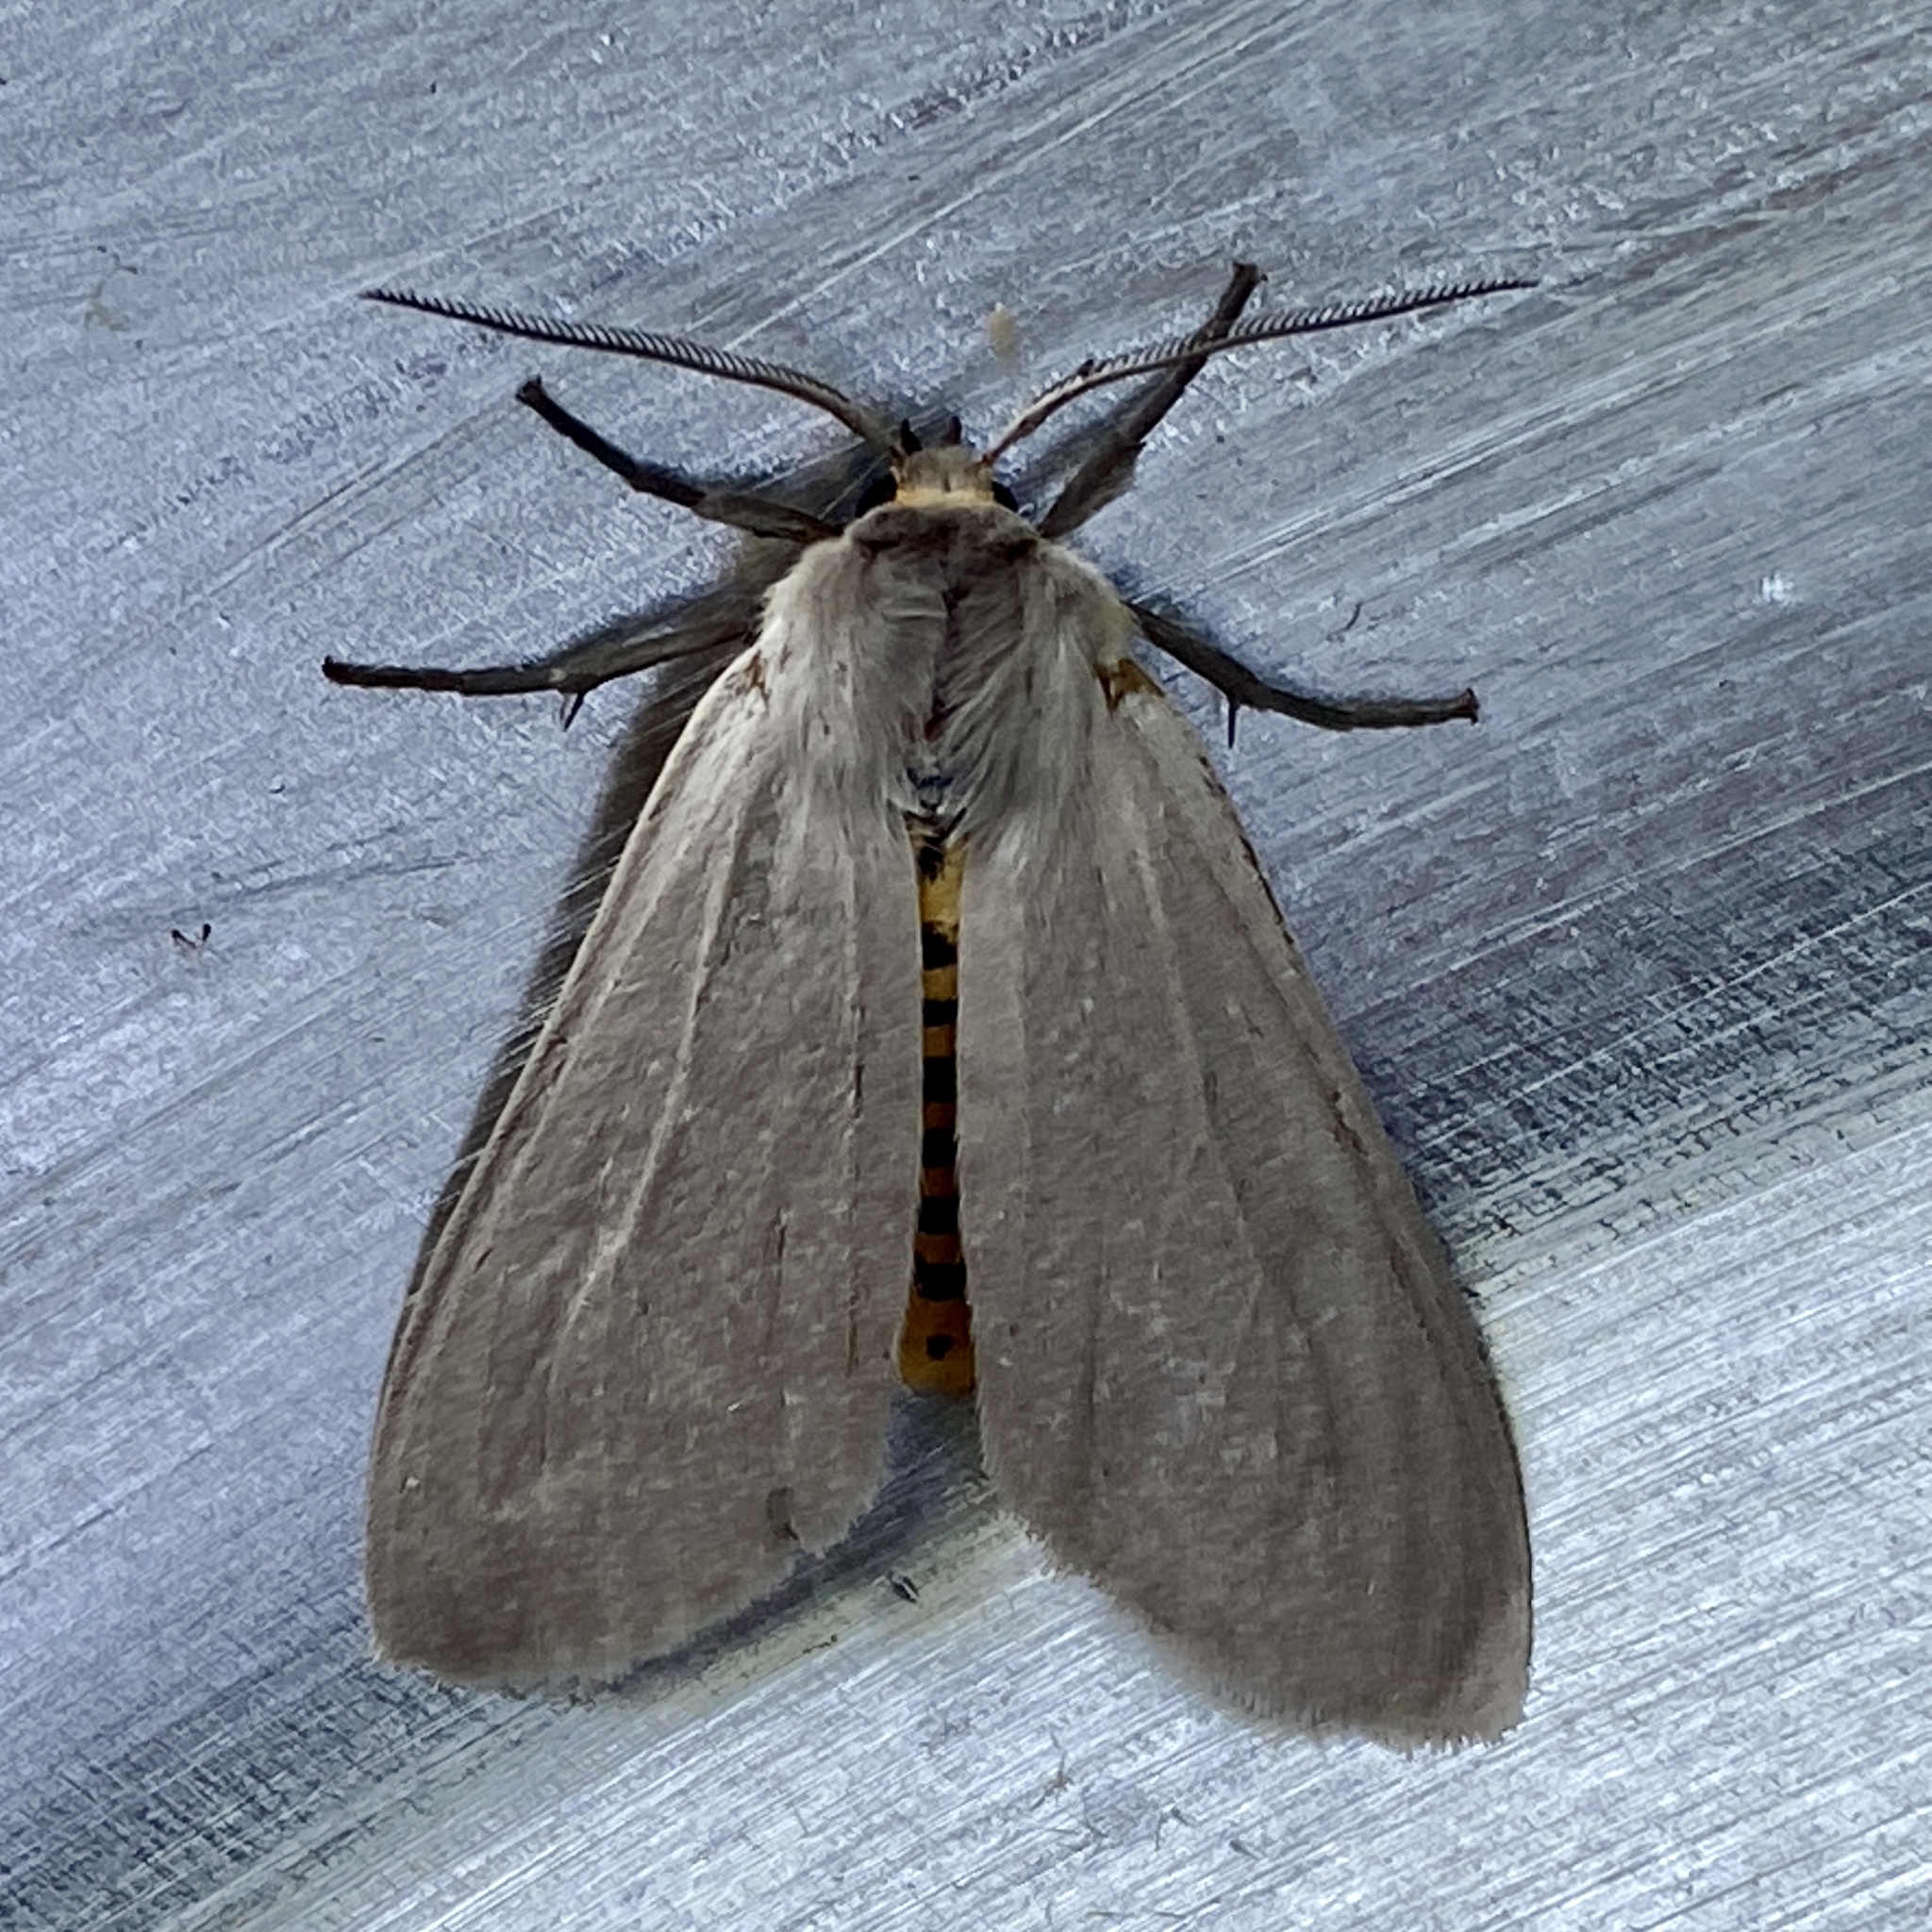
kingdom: Animalia
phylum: Arthropoda
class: Insecta
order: Lepidoptera
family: Erebidae
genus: Euchaetes
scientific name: Euchaetes egle
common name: Milkweed tussock moth
